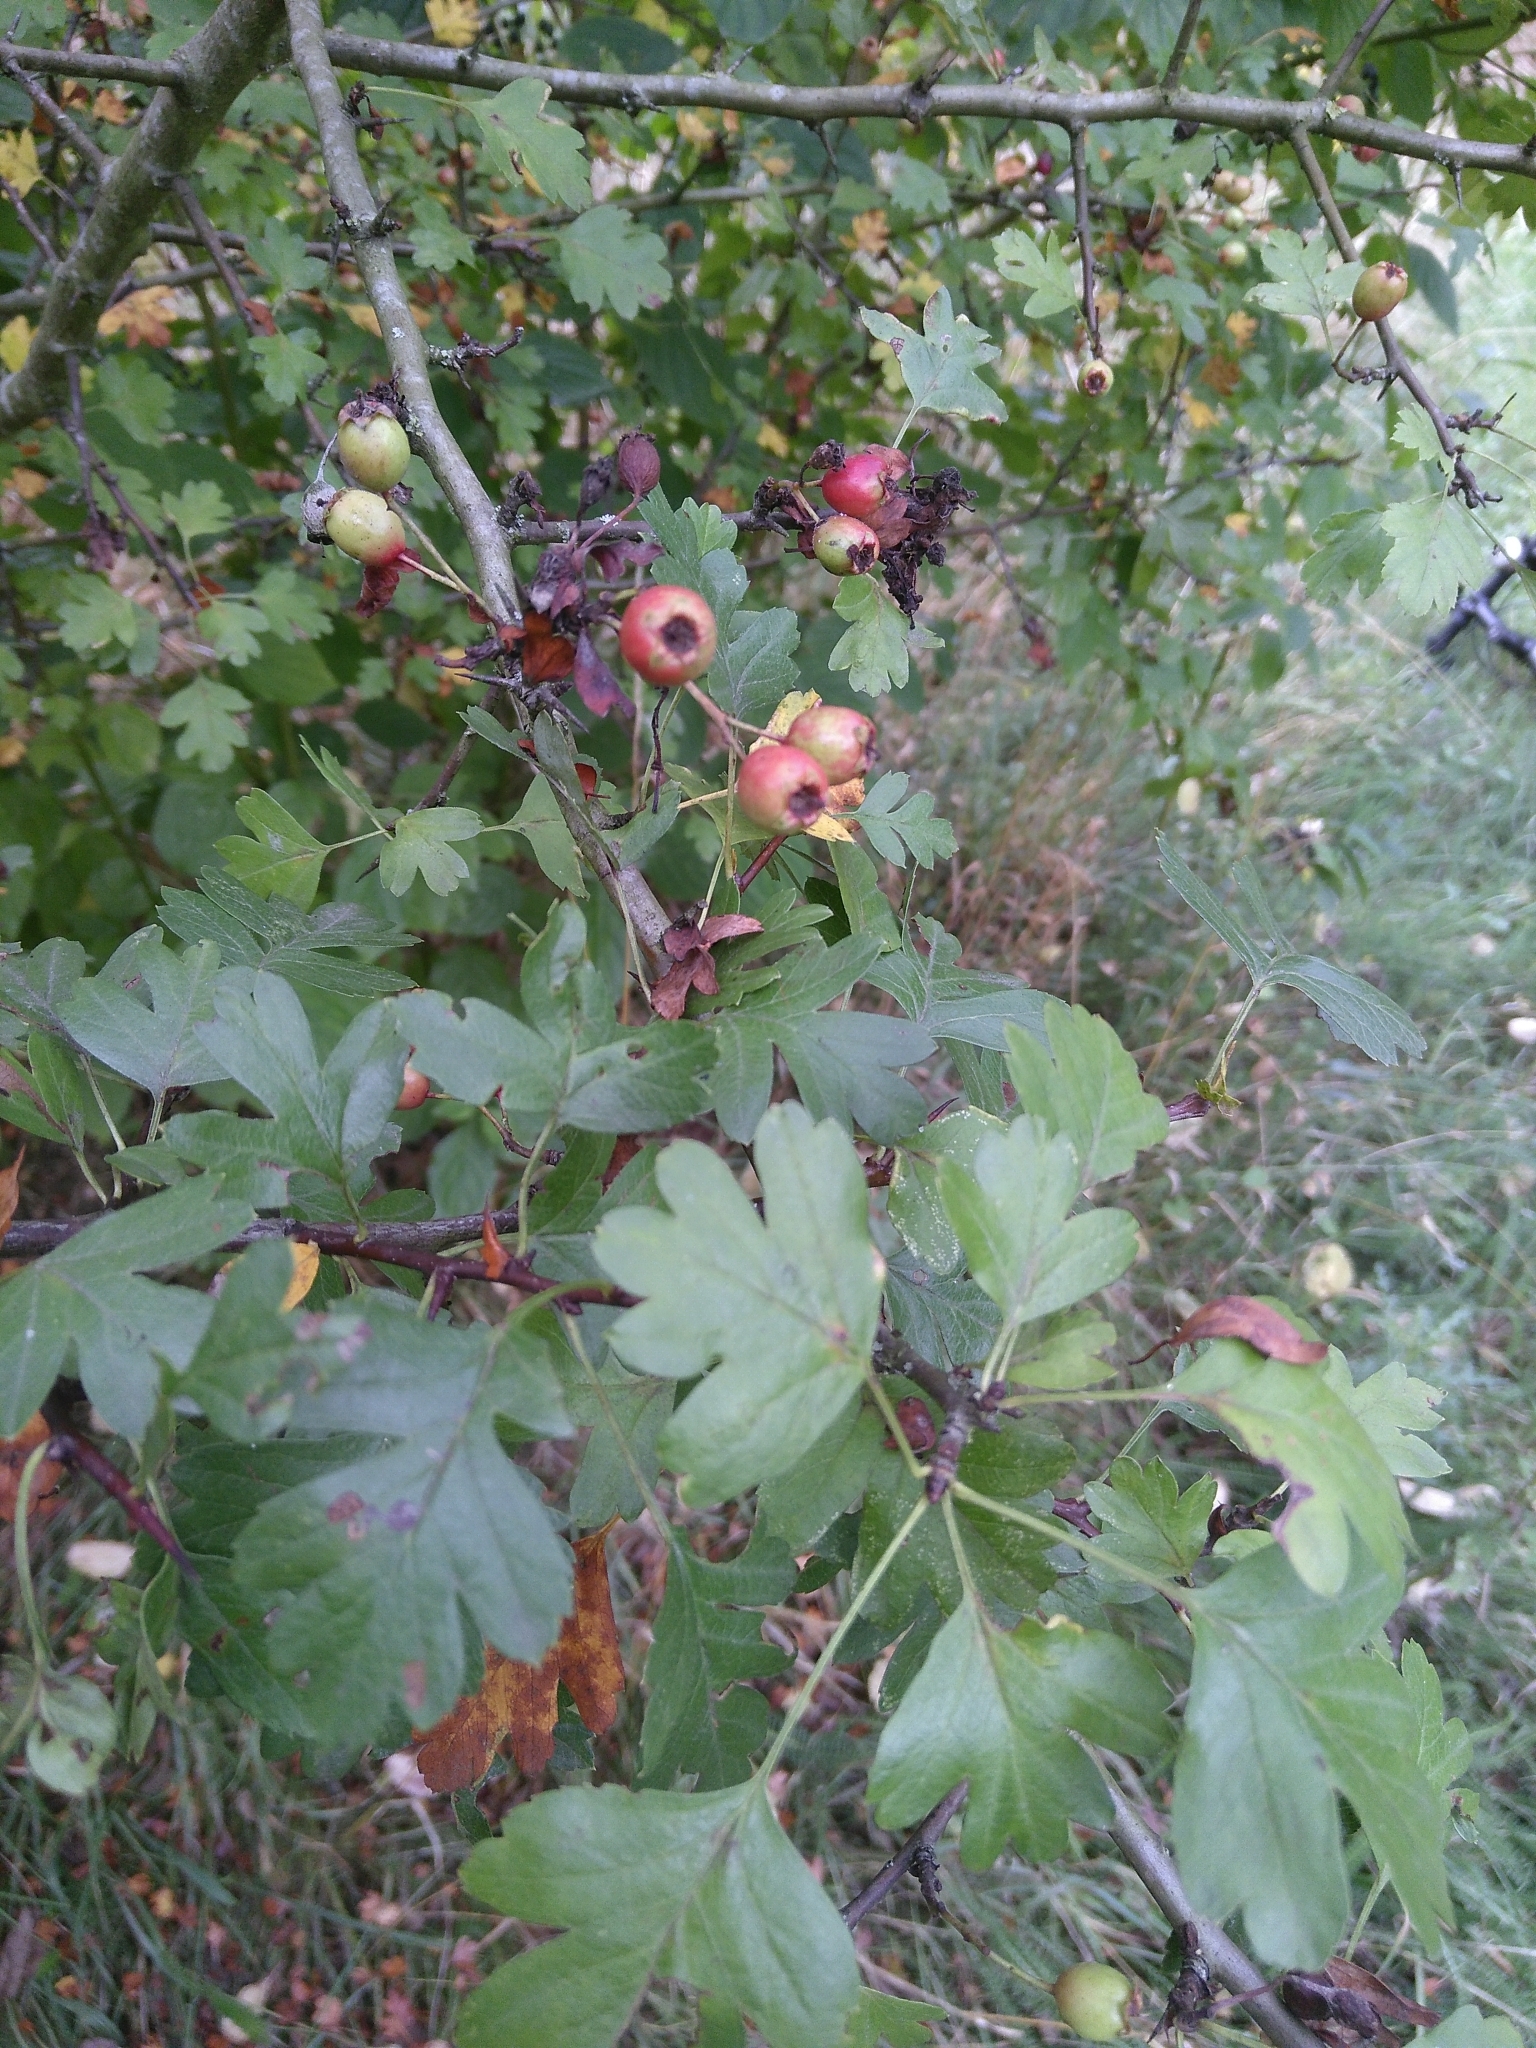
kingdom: Plantae
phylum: Tracheophyta
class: Magnoliopsida
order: Rosales
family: Rosaceae
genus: Crataegus
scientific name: Crataegus monogyna
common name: Hawthorn
